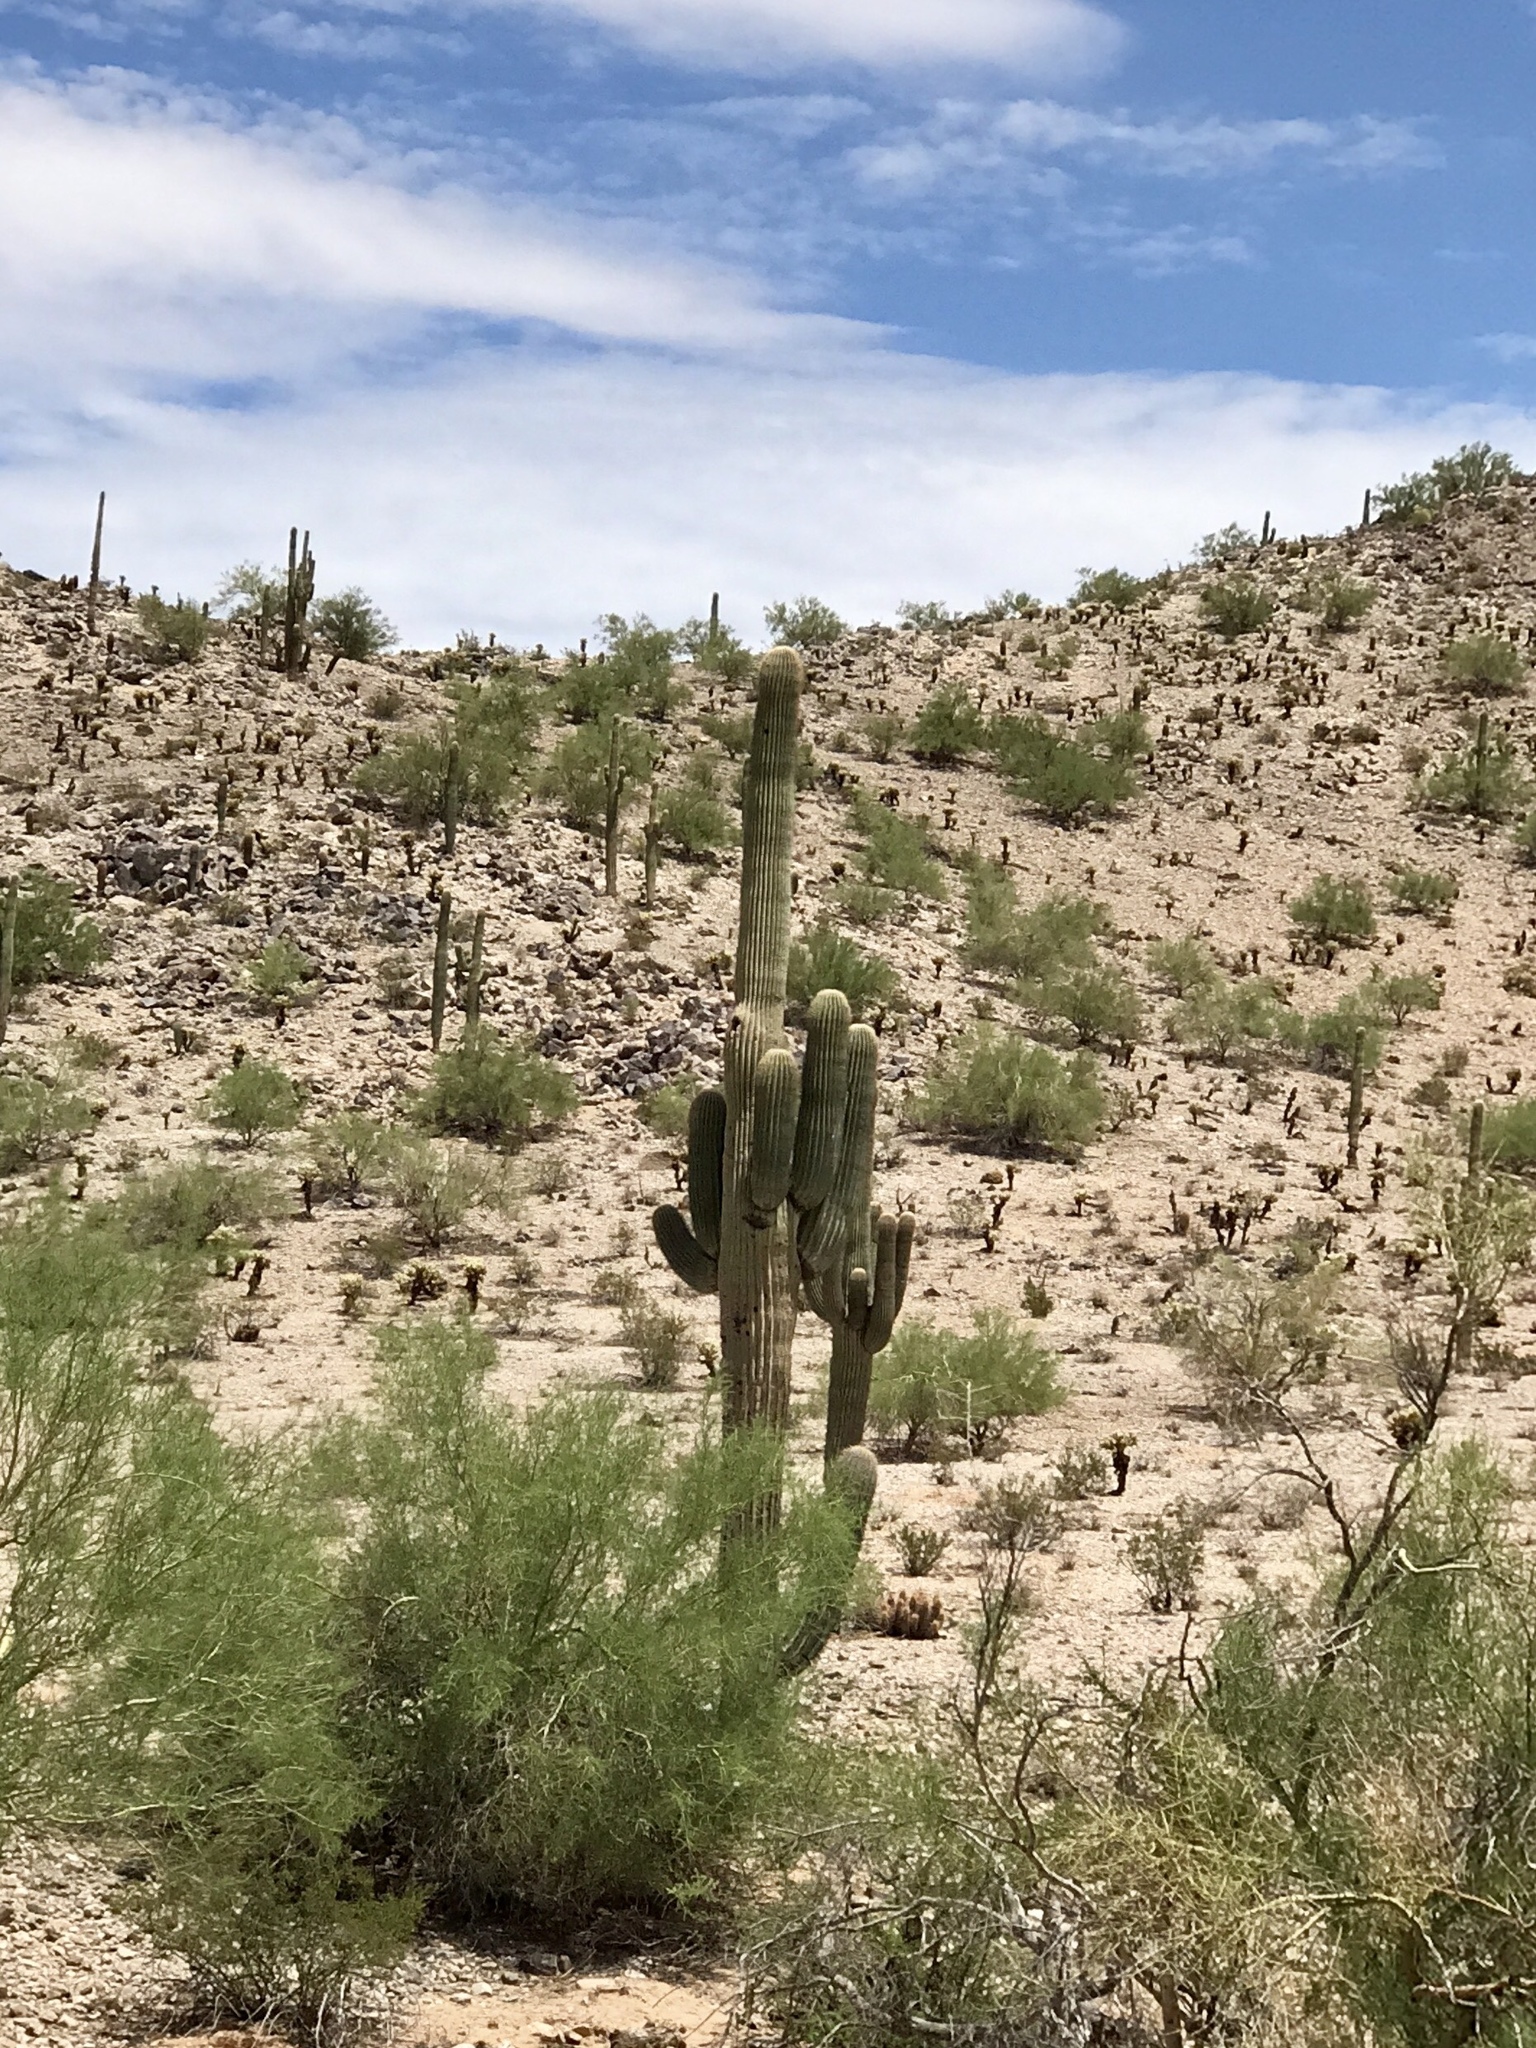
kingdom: Plantae
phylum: Tracheophyta
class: Magnoliopsida
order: Caryophyllales
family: Cactaceae
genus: Carnegiea
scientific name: Carnegiea gigantea
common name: Saguaro
